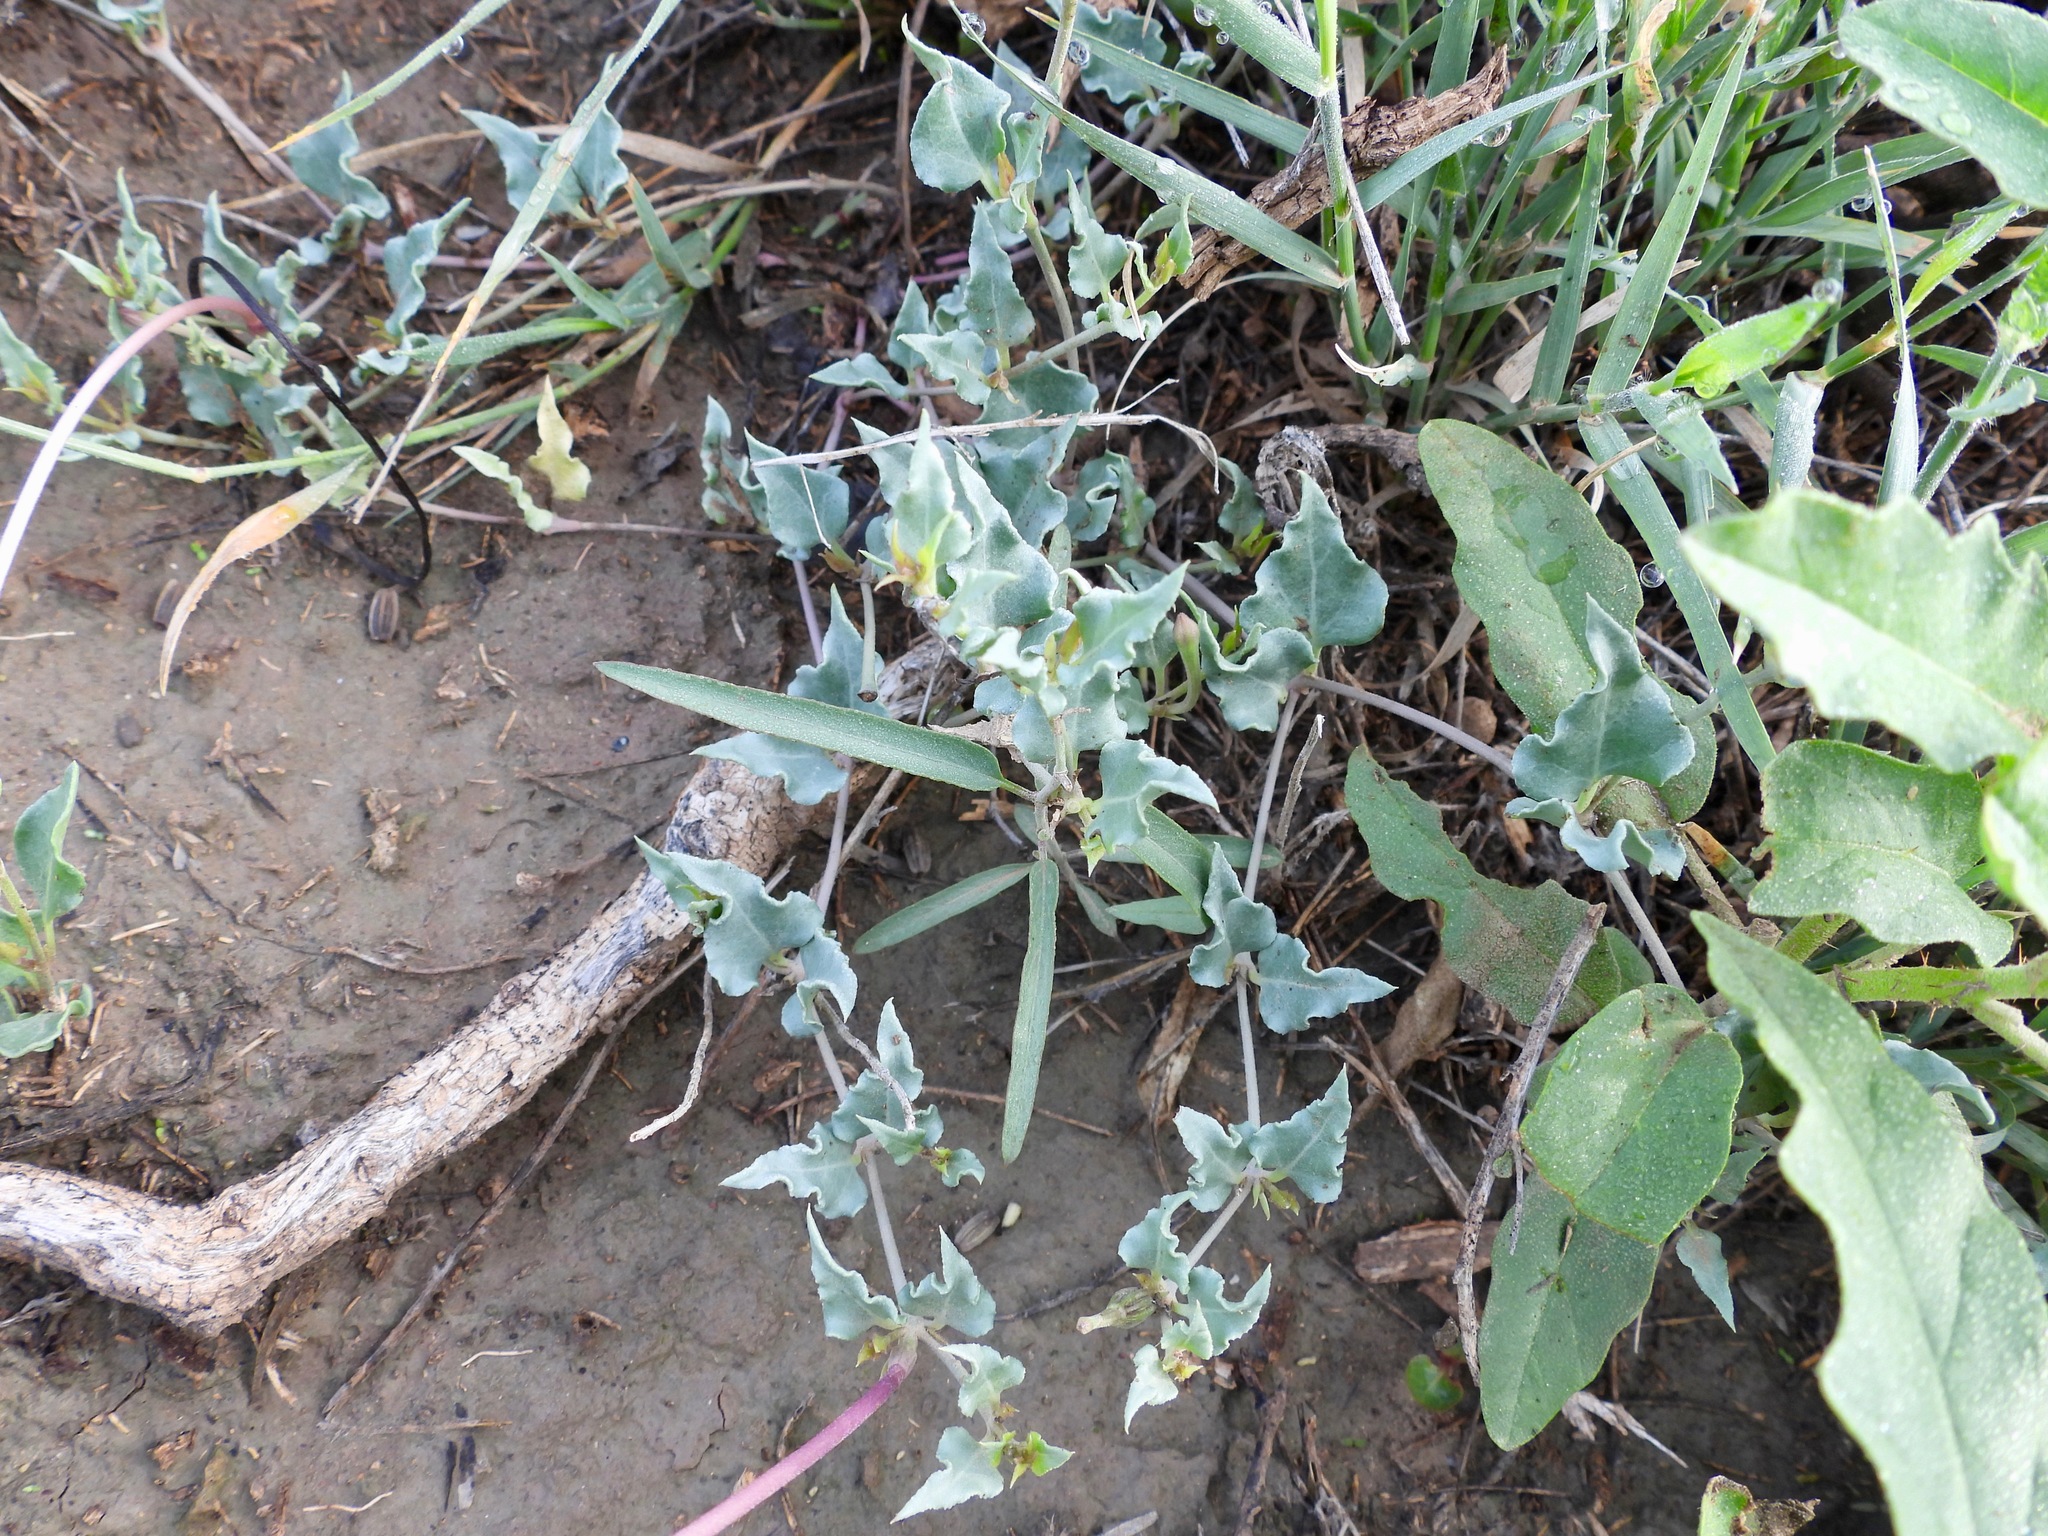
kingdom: Plantae
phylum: Tracheophyta
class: Magnoliopsida
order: Caryophyllales
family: Nyctaginaceae
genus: Acleisanthes
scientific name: Acleisanthes longiflora
